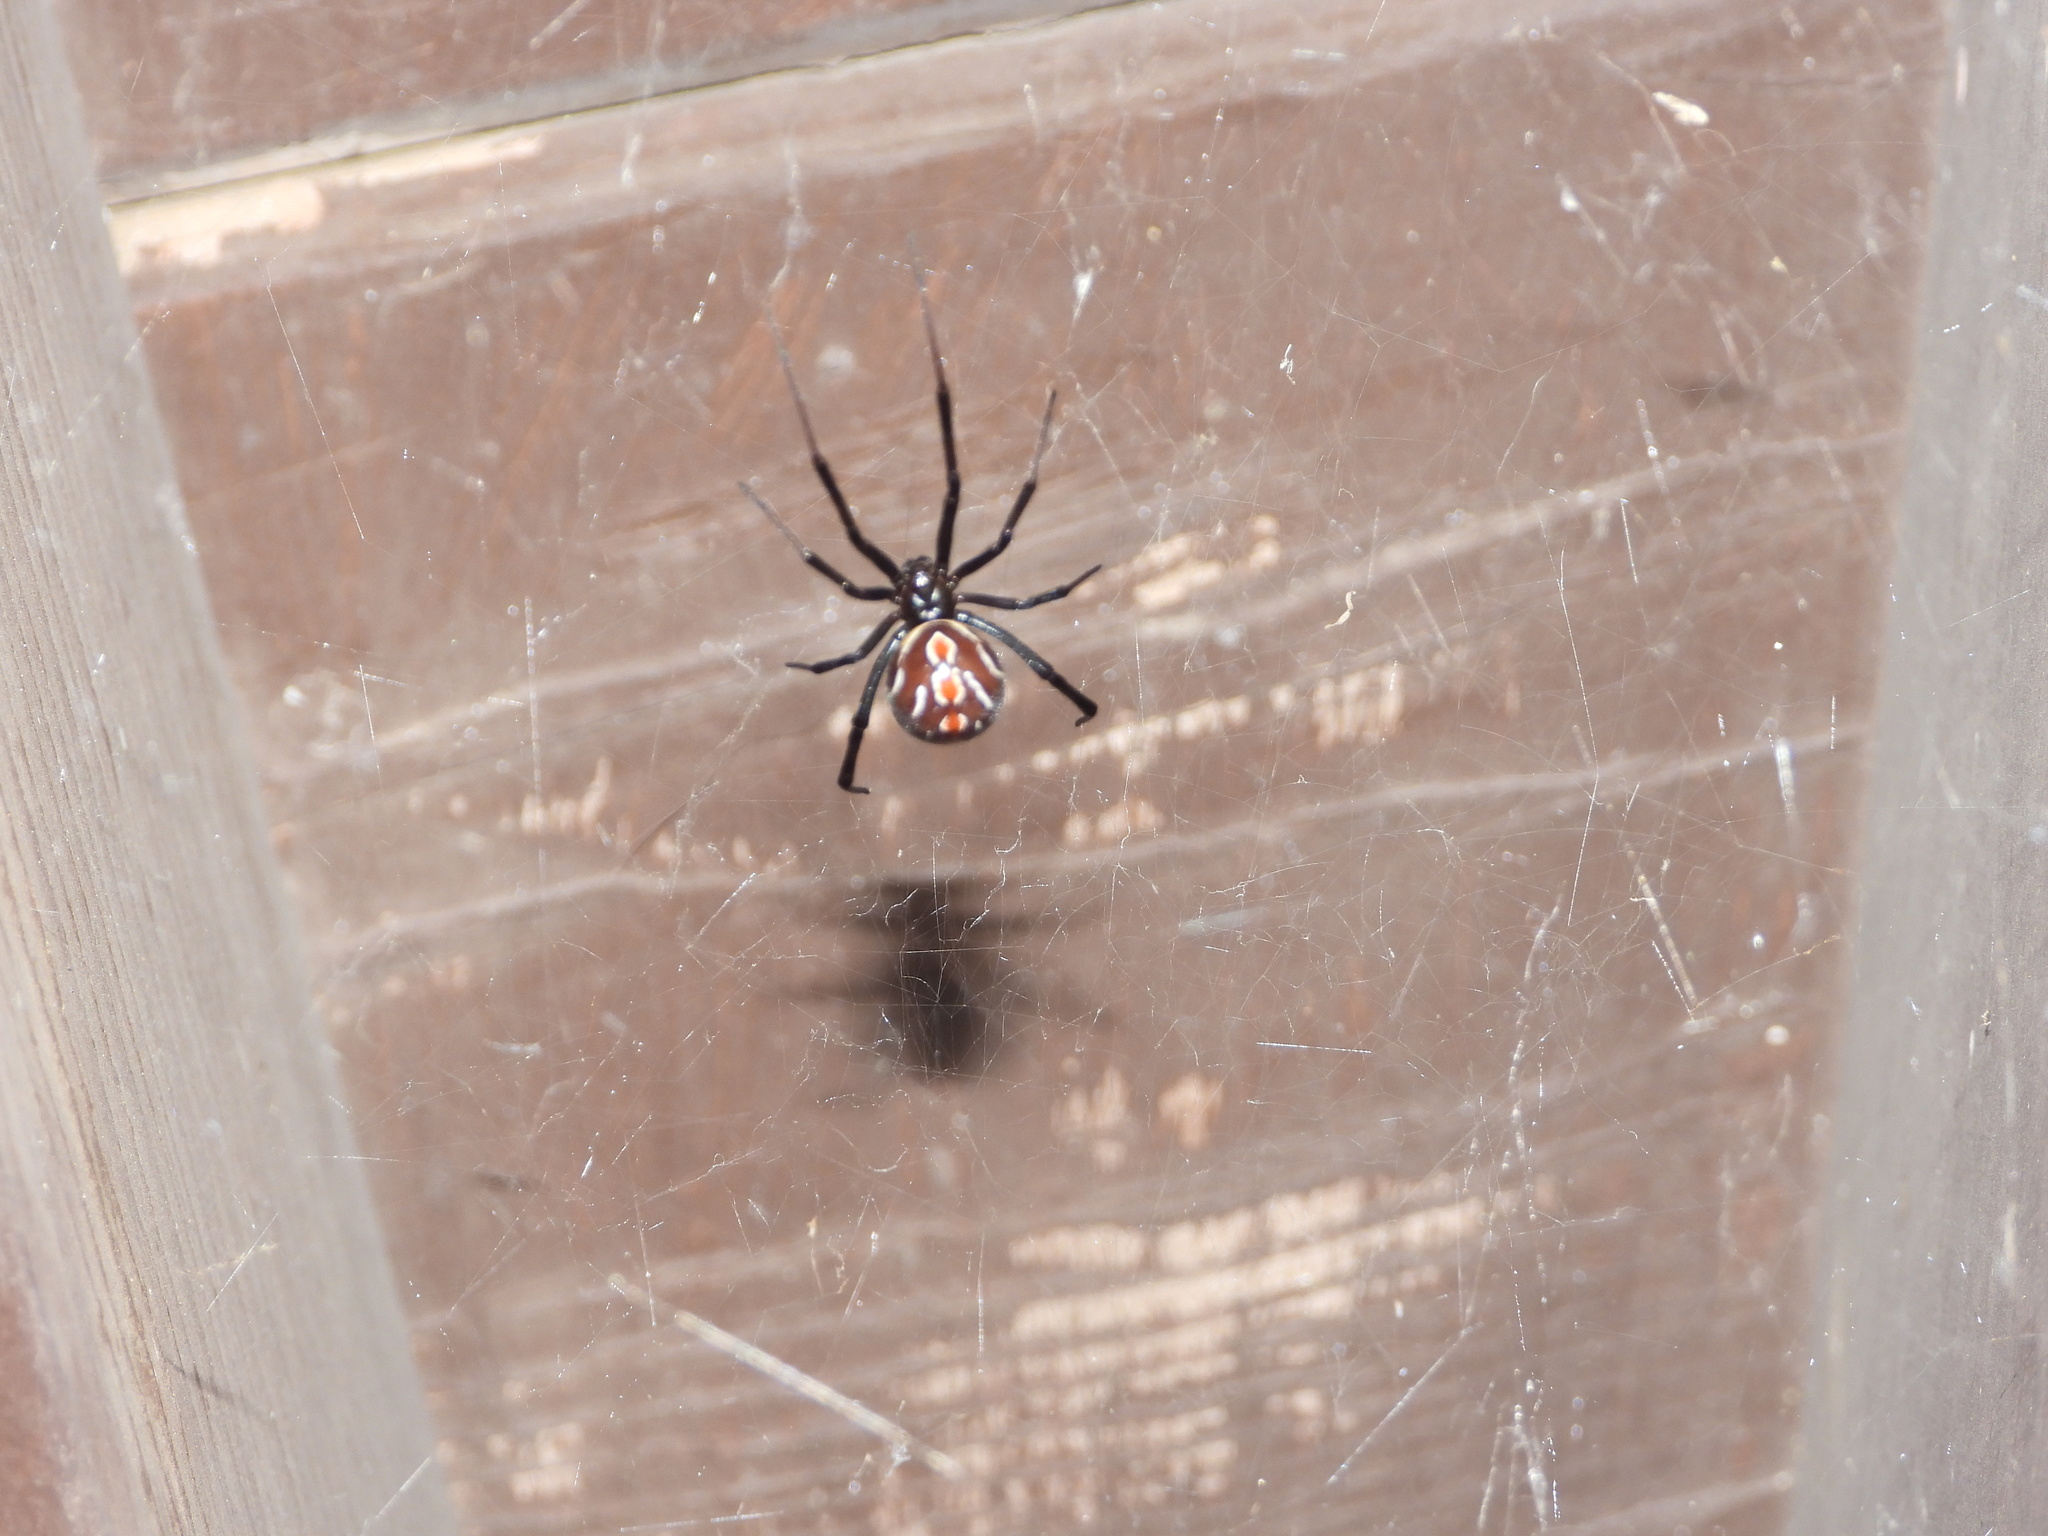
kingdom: Animalia
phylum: Arthropoda
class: Arachnida
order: Araneae
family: Theridiidae
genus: Latrodectus
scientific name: Latrodectus hesperus
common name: Western black widow
